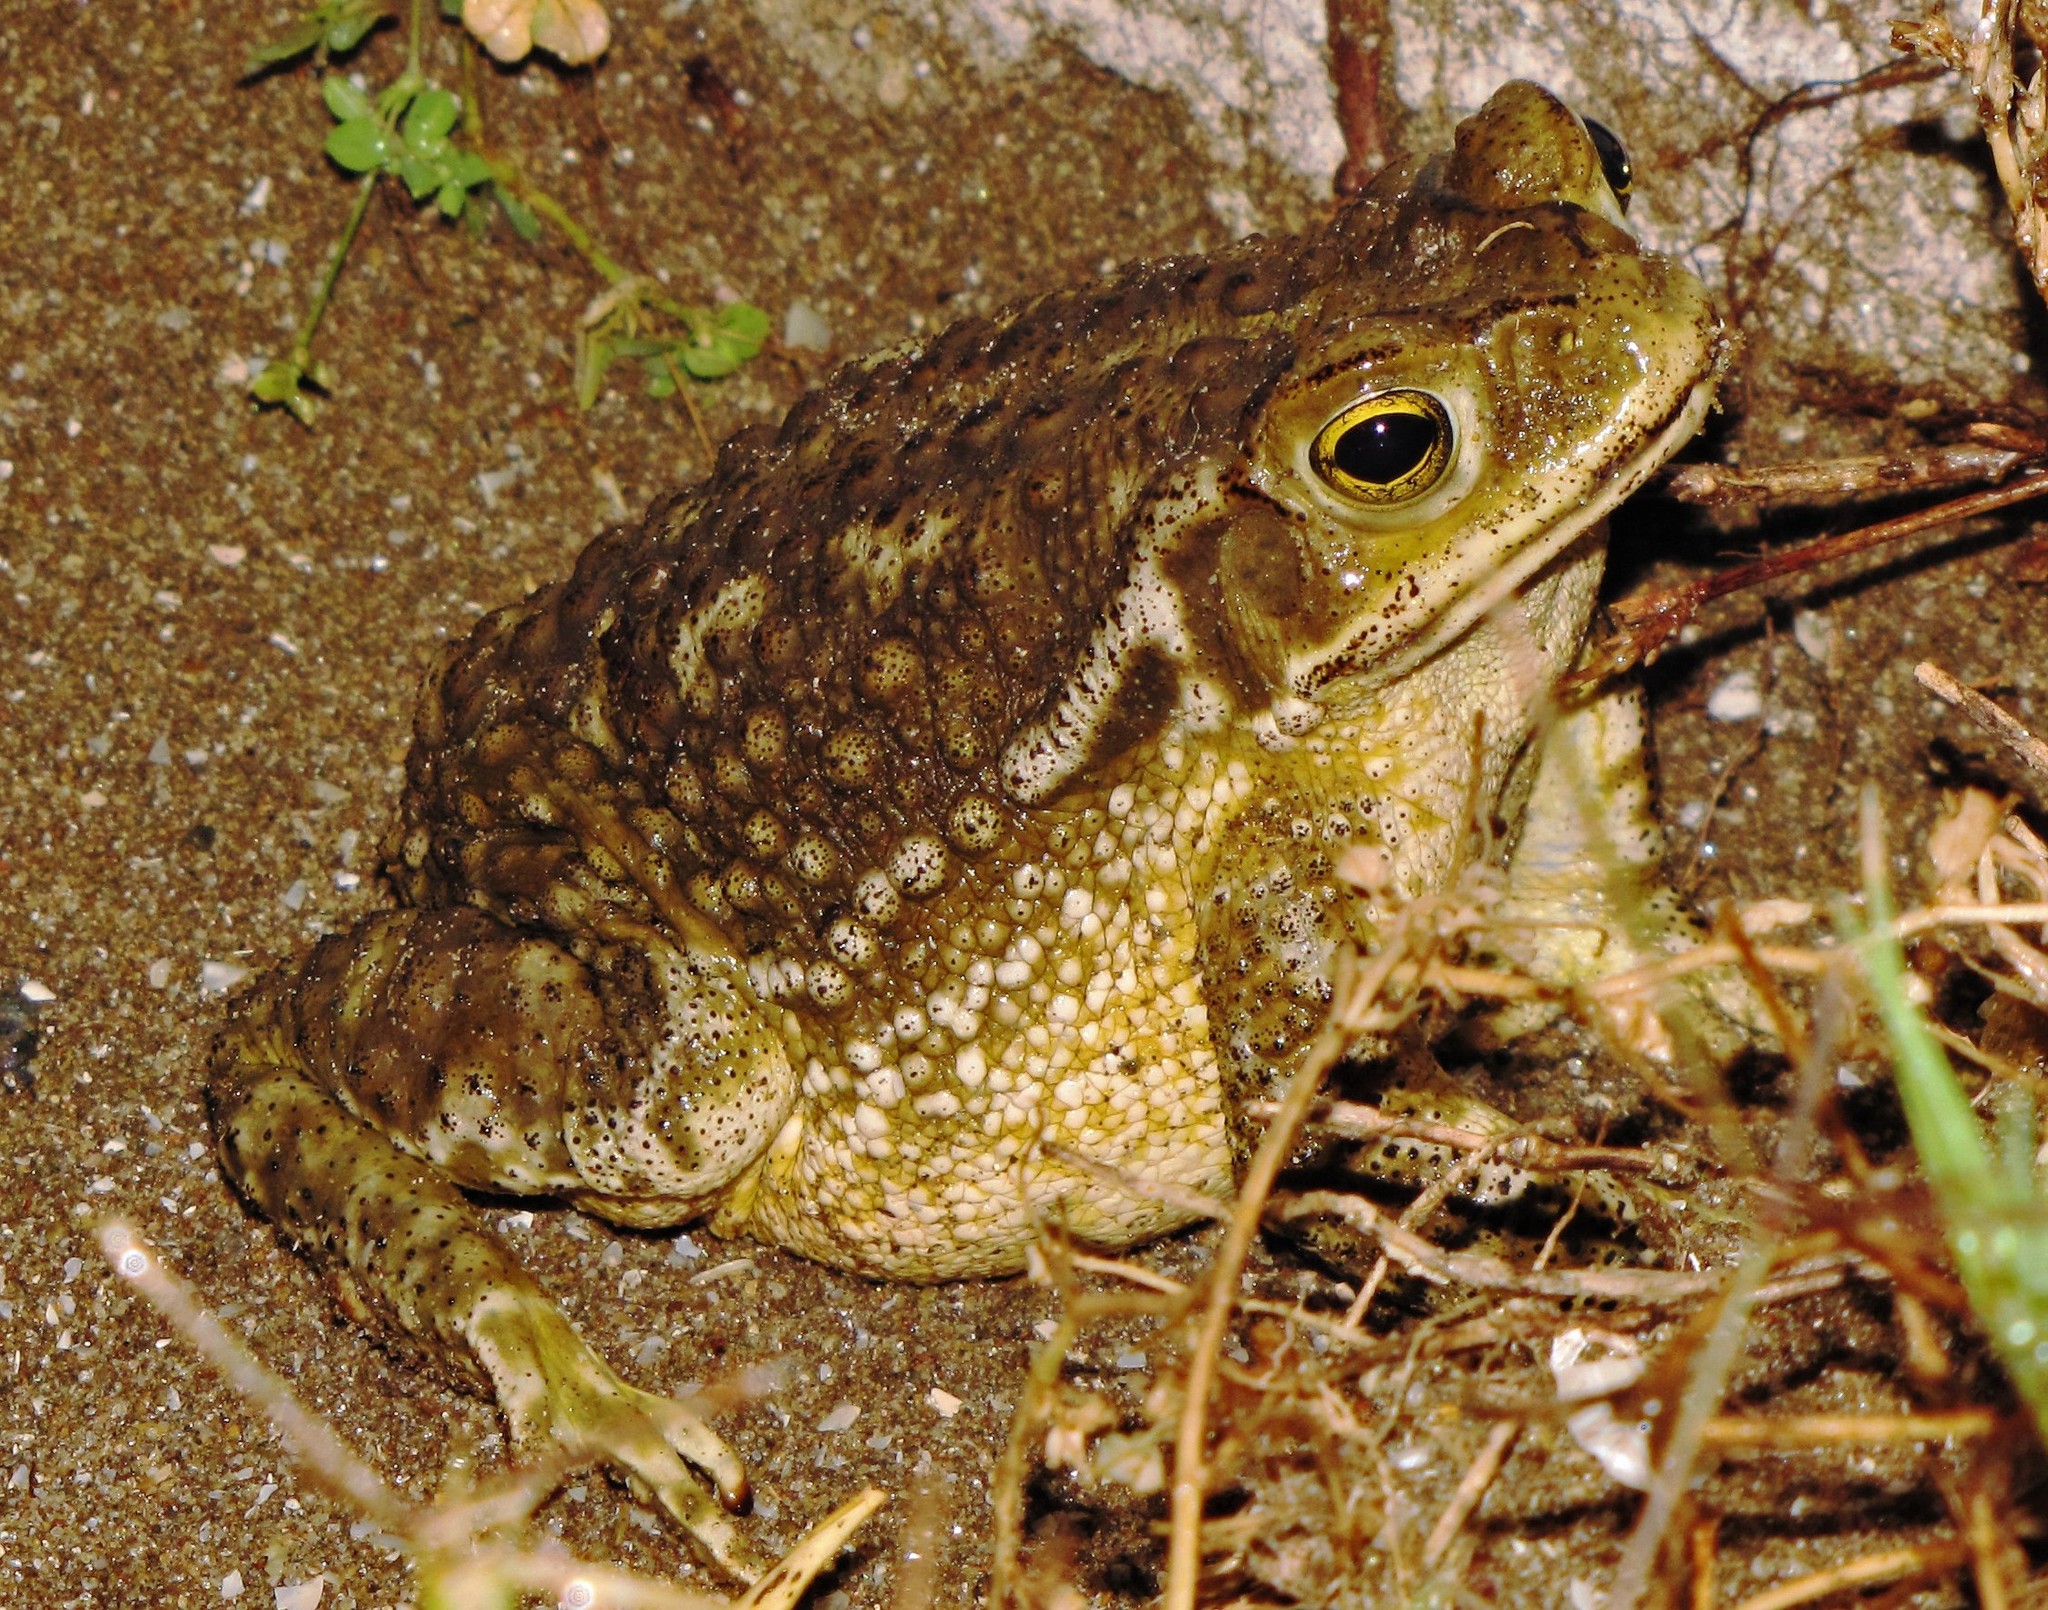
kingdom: Animalia
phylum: Chordata
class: Amphibia
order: Anura
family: Bufonidae
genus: Rhinella
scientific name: Rhinella arenarum
